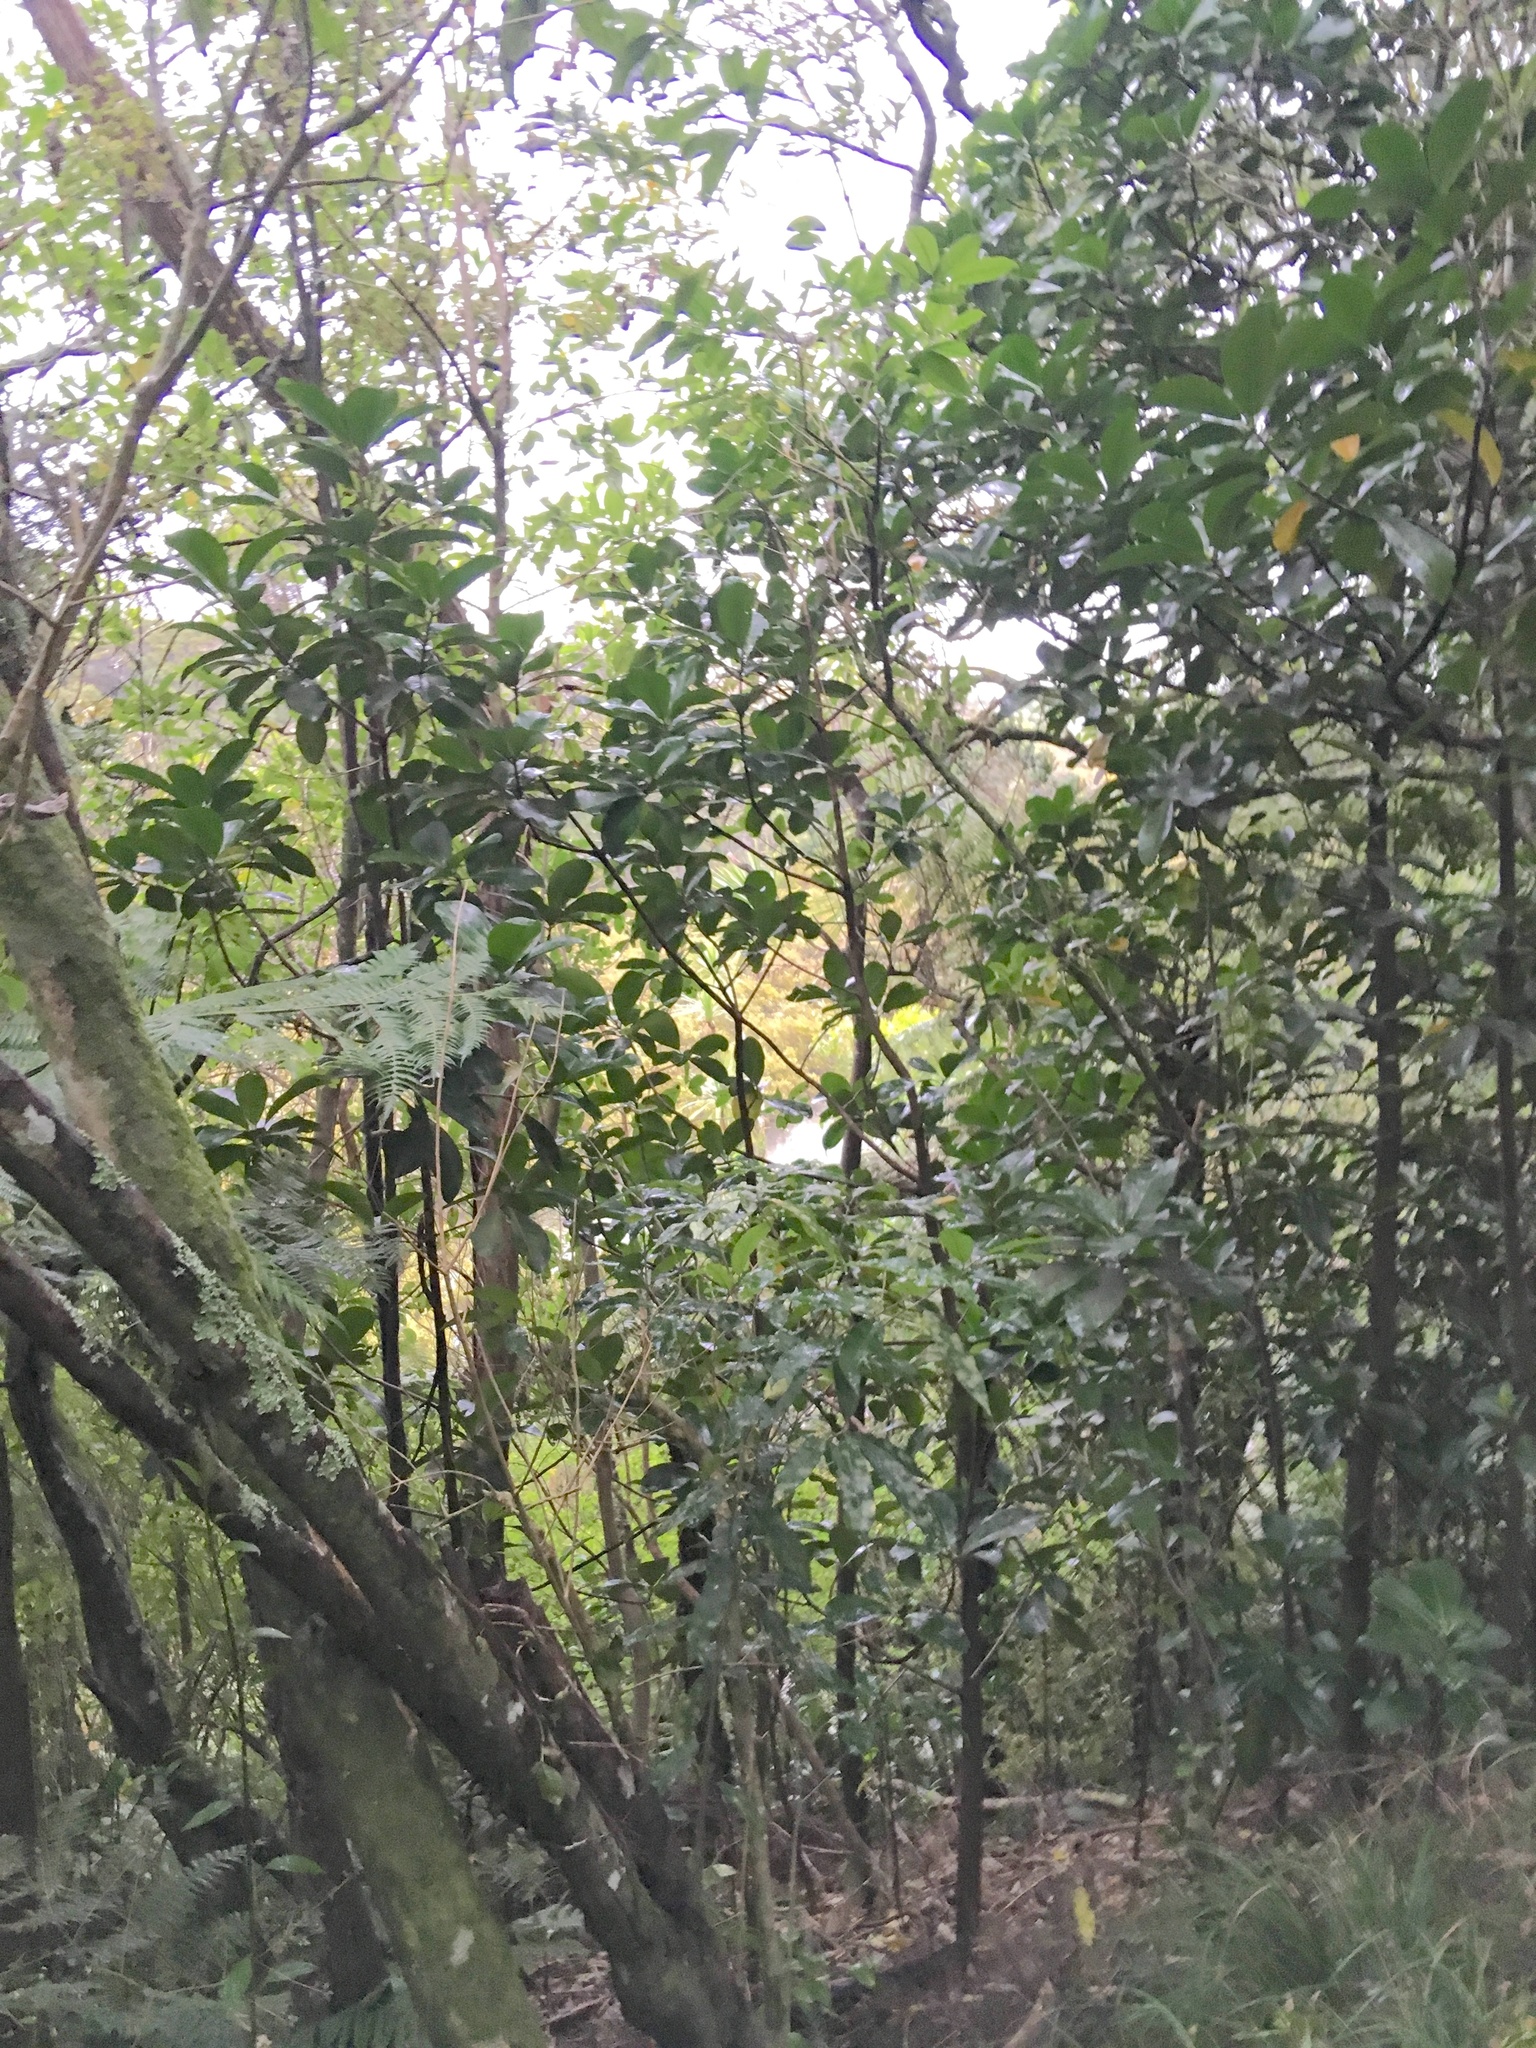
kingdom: Plantae
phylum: Tracheophyta
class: Magnoliopsida
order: Cucurbitales
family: Corynocarpaceae
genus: Corynocarpus
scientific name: Corynocarpus laevigatus
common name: New zealand laurel
